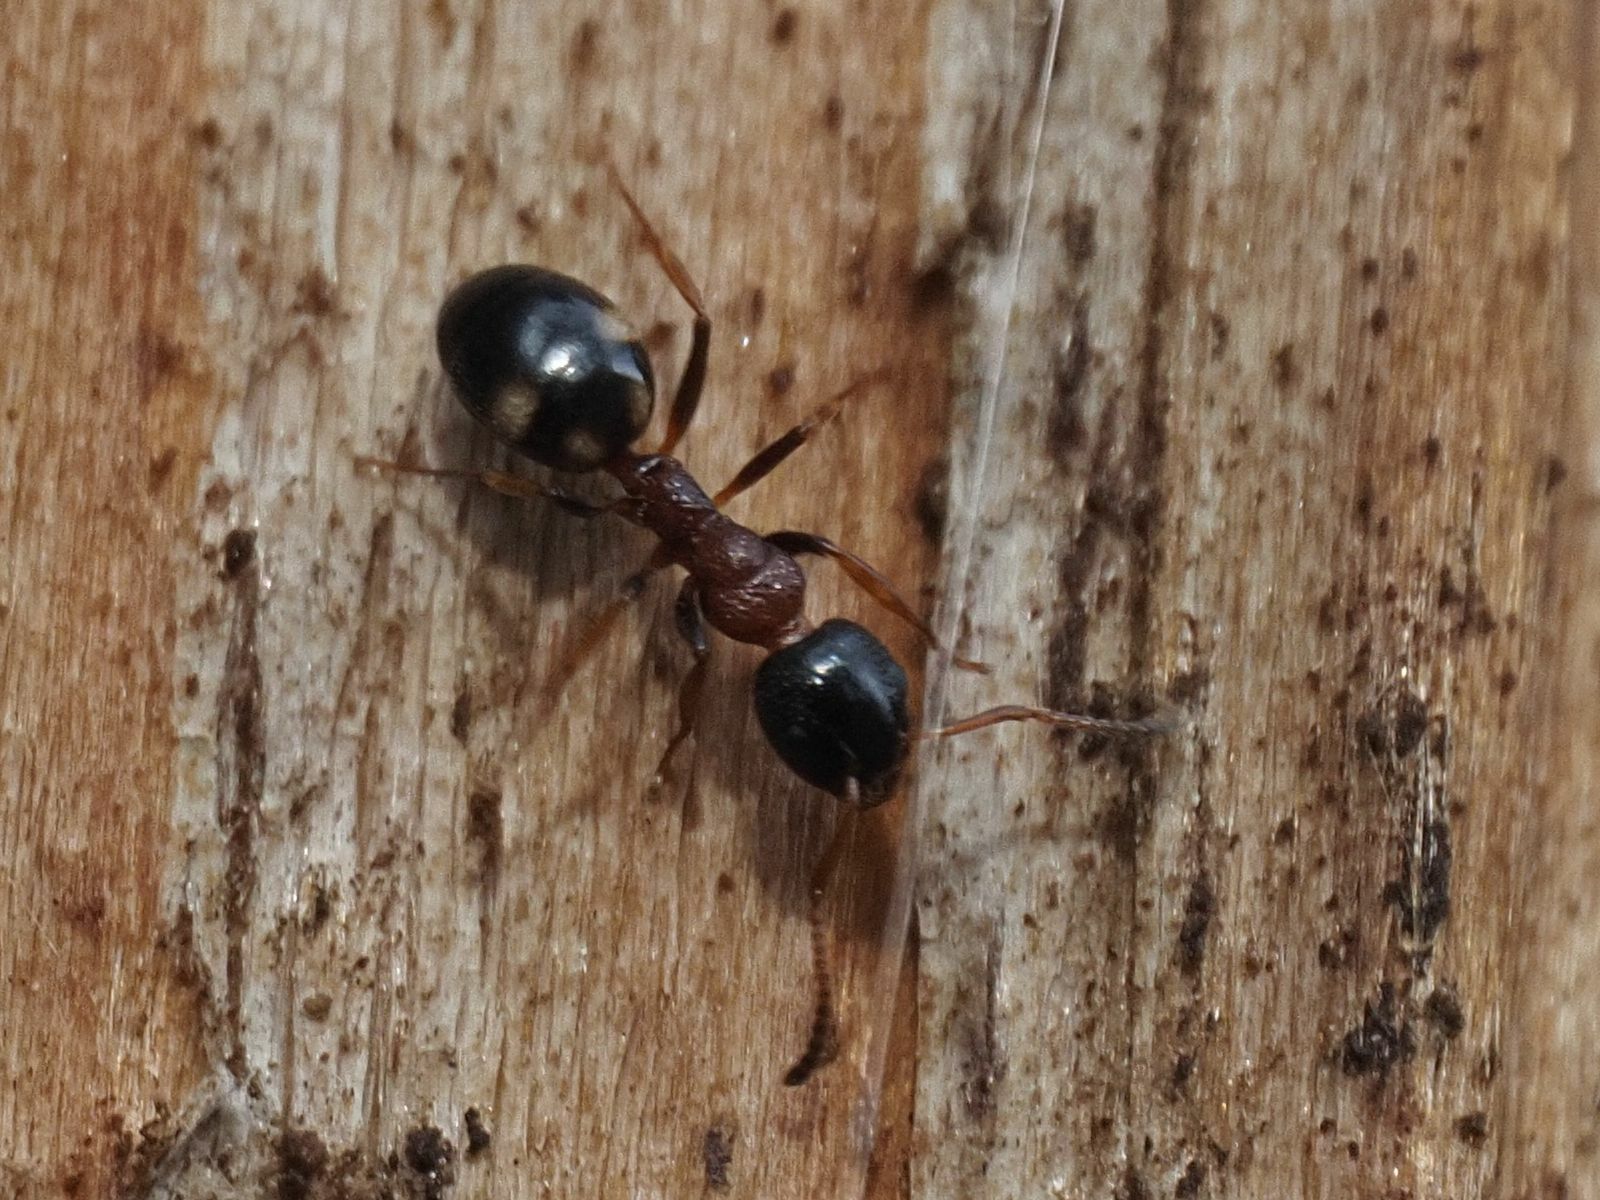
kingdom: Animalia
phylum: Arthropoda
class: Insecta
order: Hymenoptera
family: Formicidae
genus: Dolichoderus
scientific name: Dolichoderus quadripunctatus
